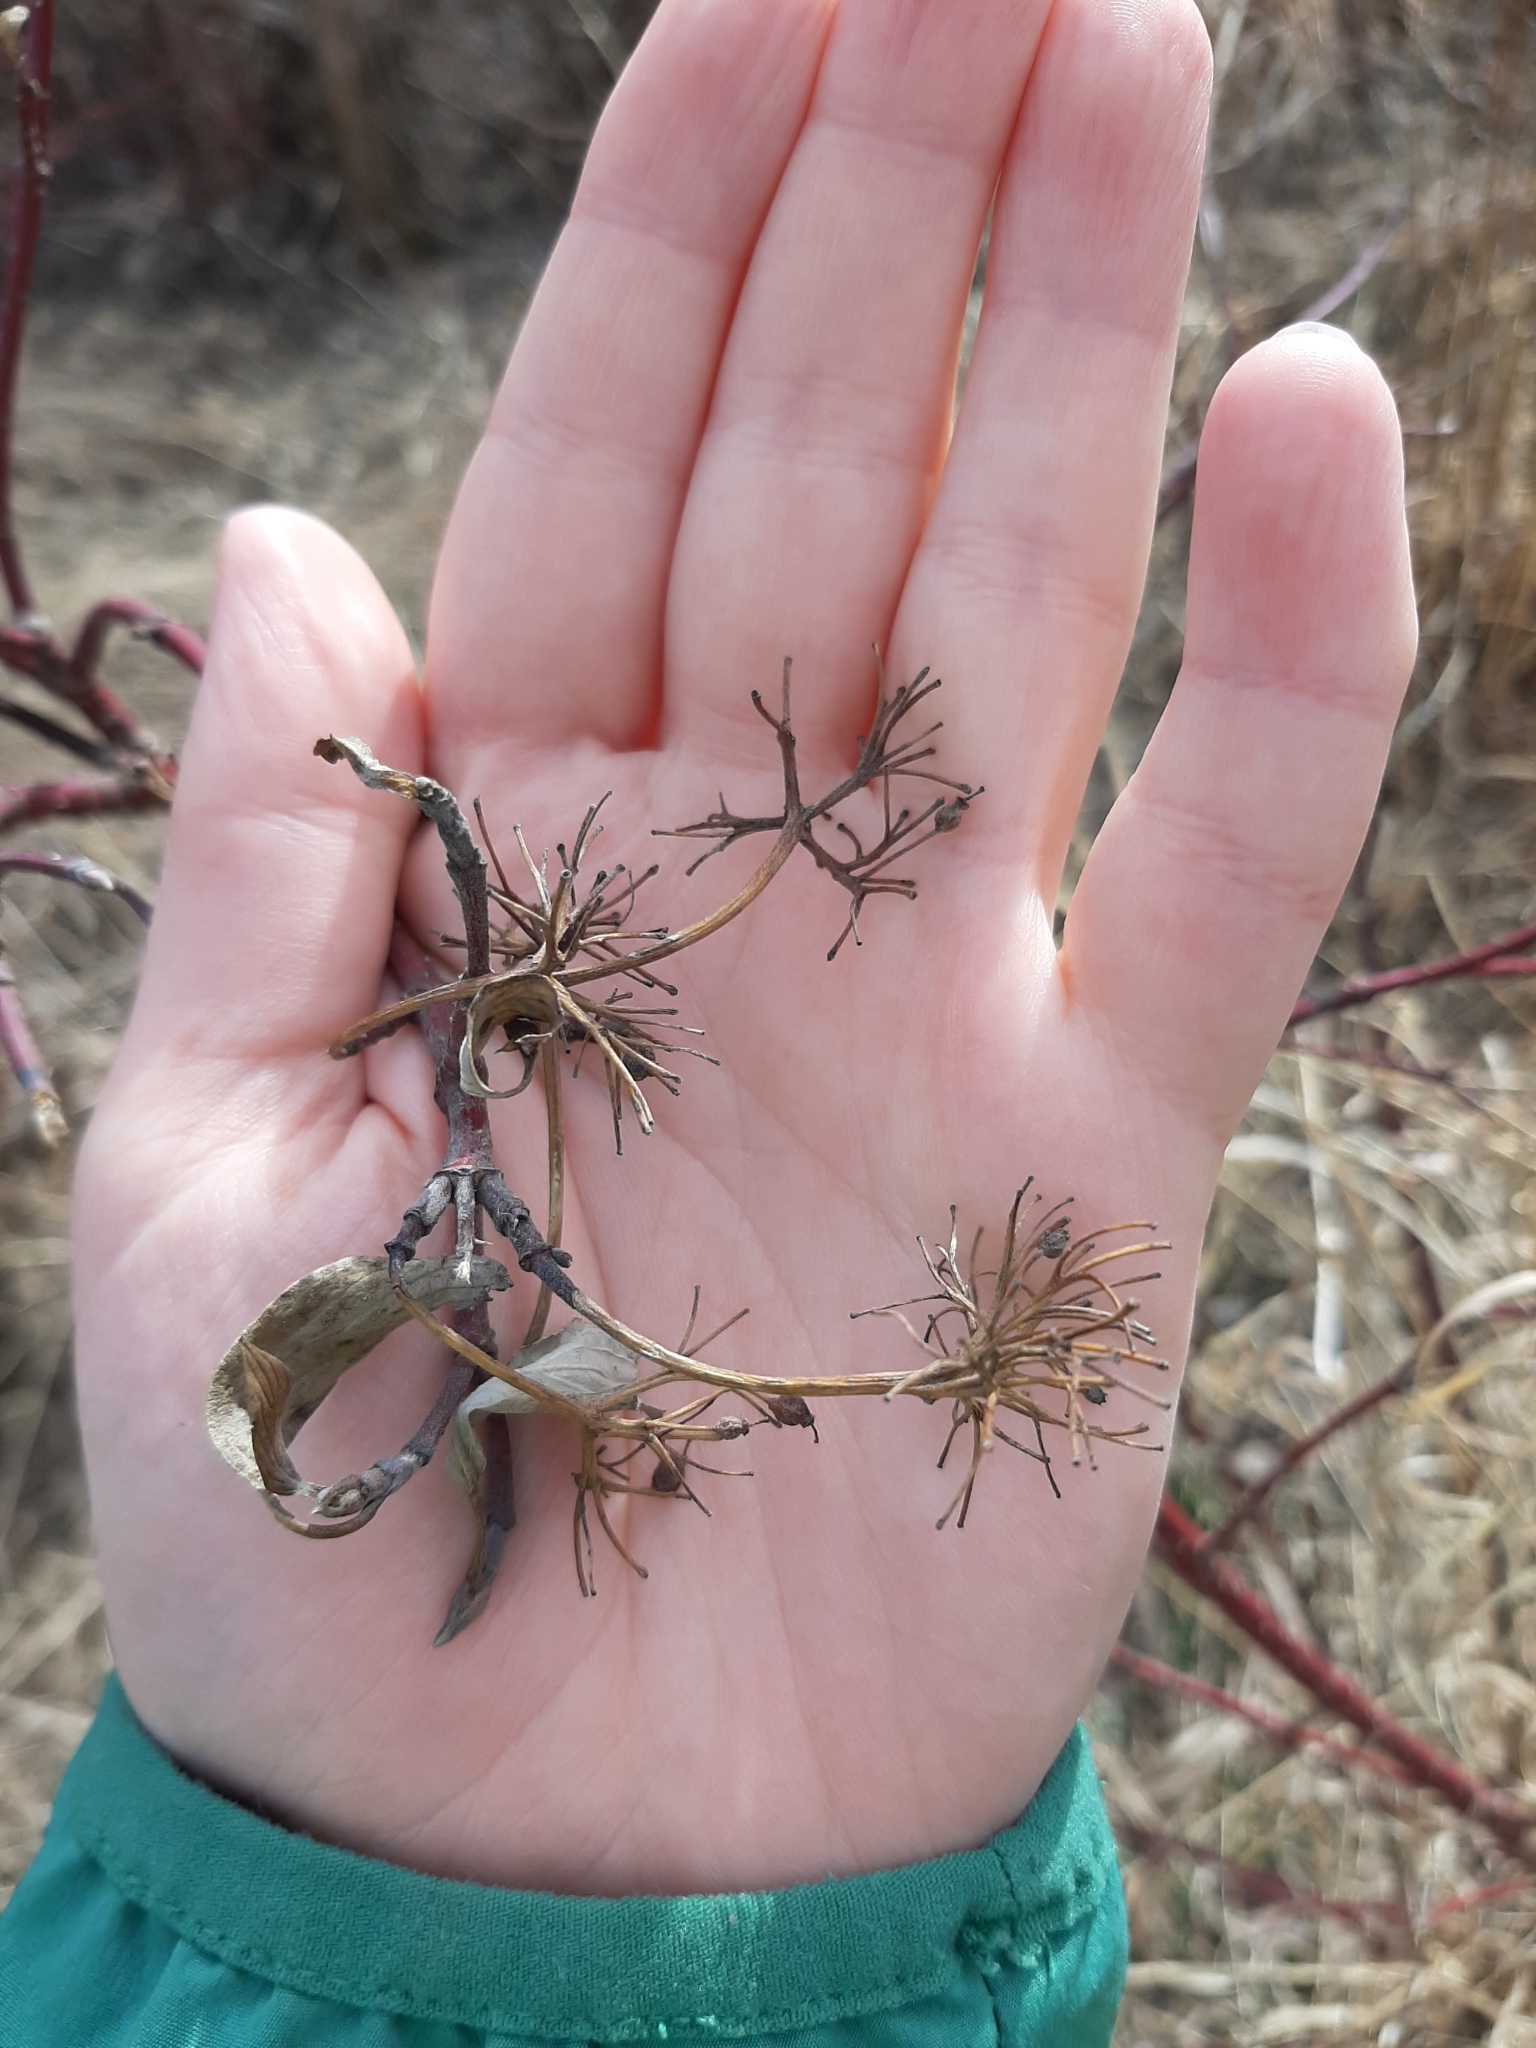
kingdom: Plantae
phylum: Tracheophyta
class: Magnoliopsida
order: Cornales
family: Cornaceae
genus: Cornus
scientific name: Cornus sericea
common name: Red-osier dogwood
